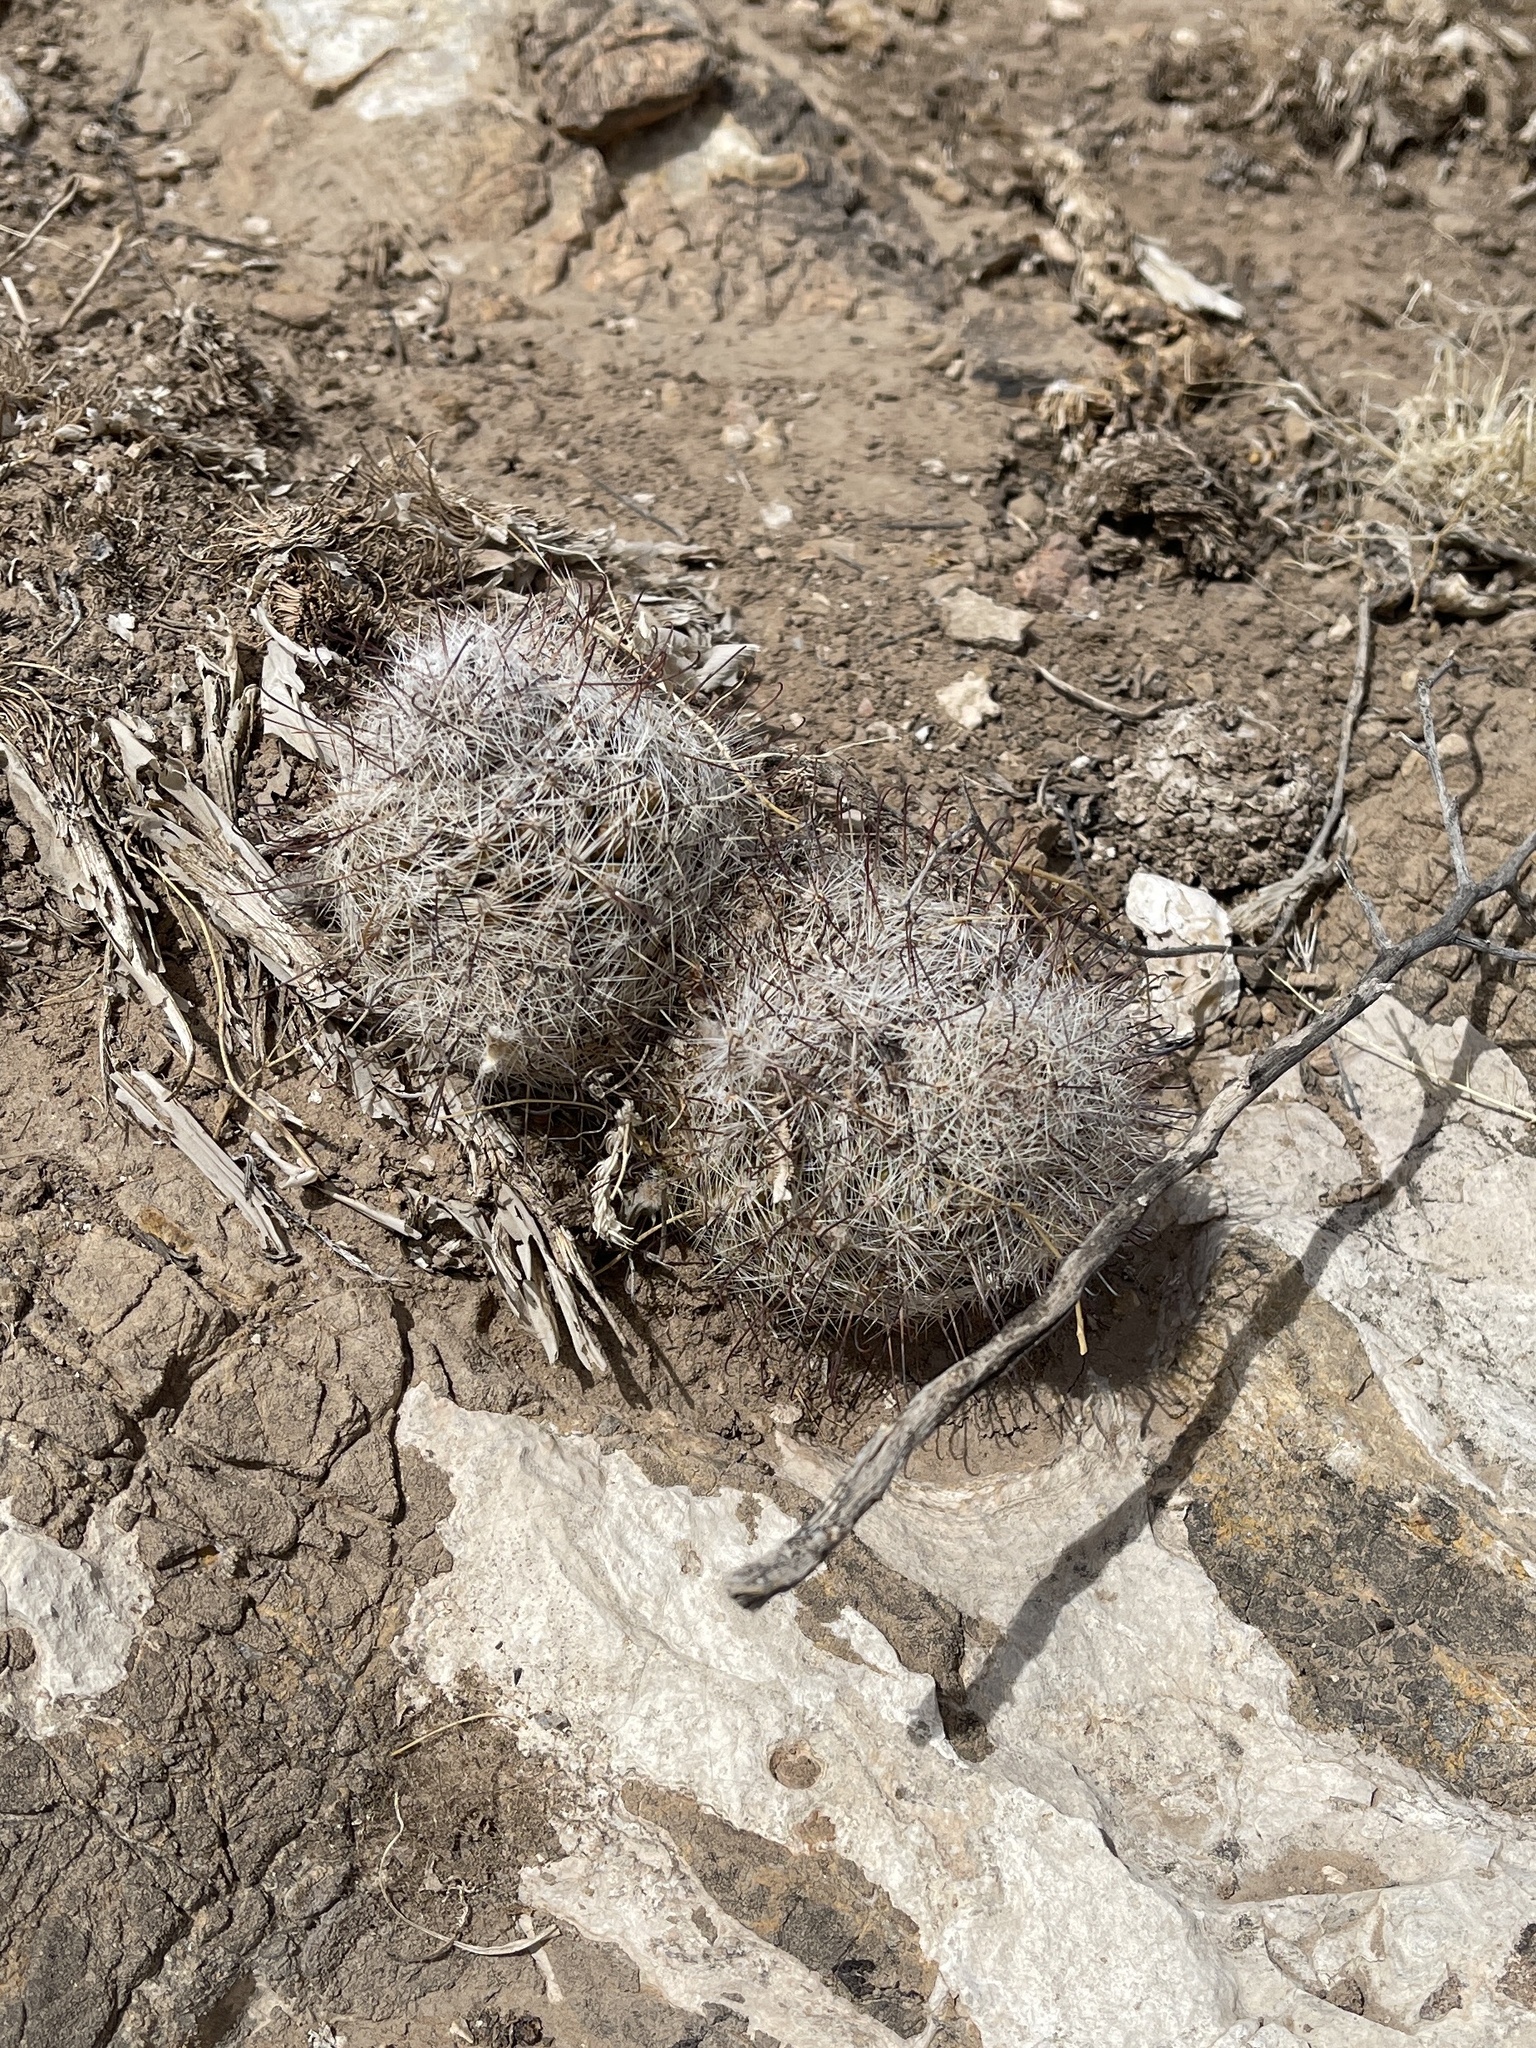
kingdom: Plantae
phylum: Tracheophyta
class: Magnoliopsida
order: Caryophyllales
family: Cactaceae
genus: Cochemiea
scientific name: Cochemiea grahamii
